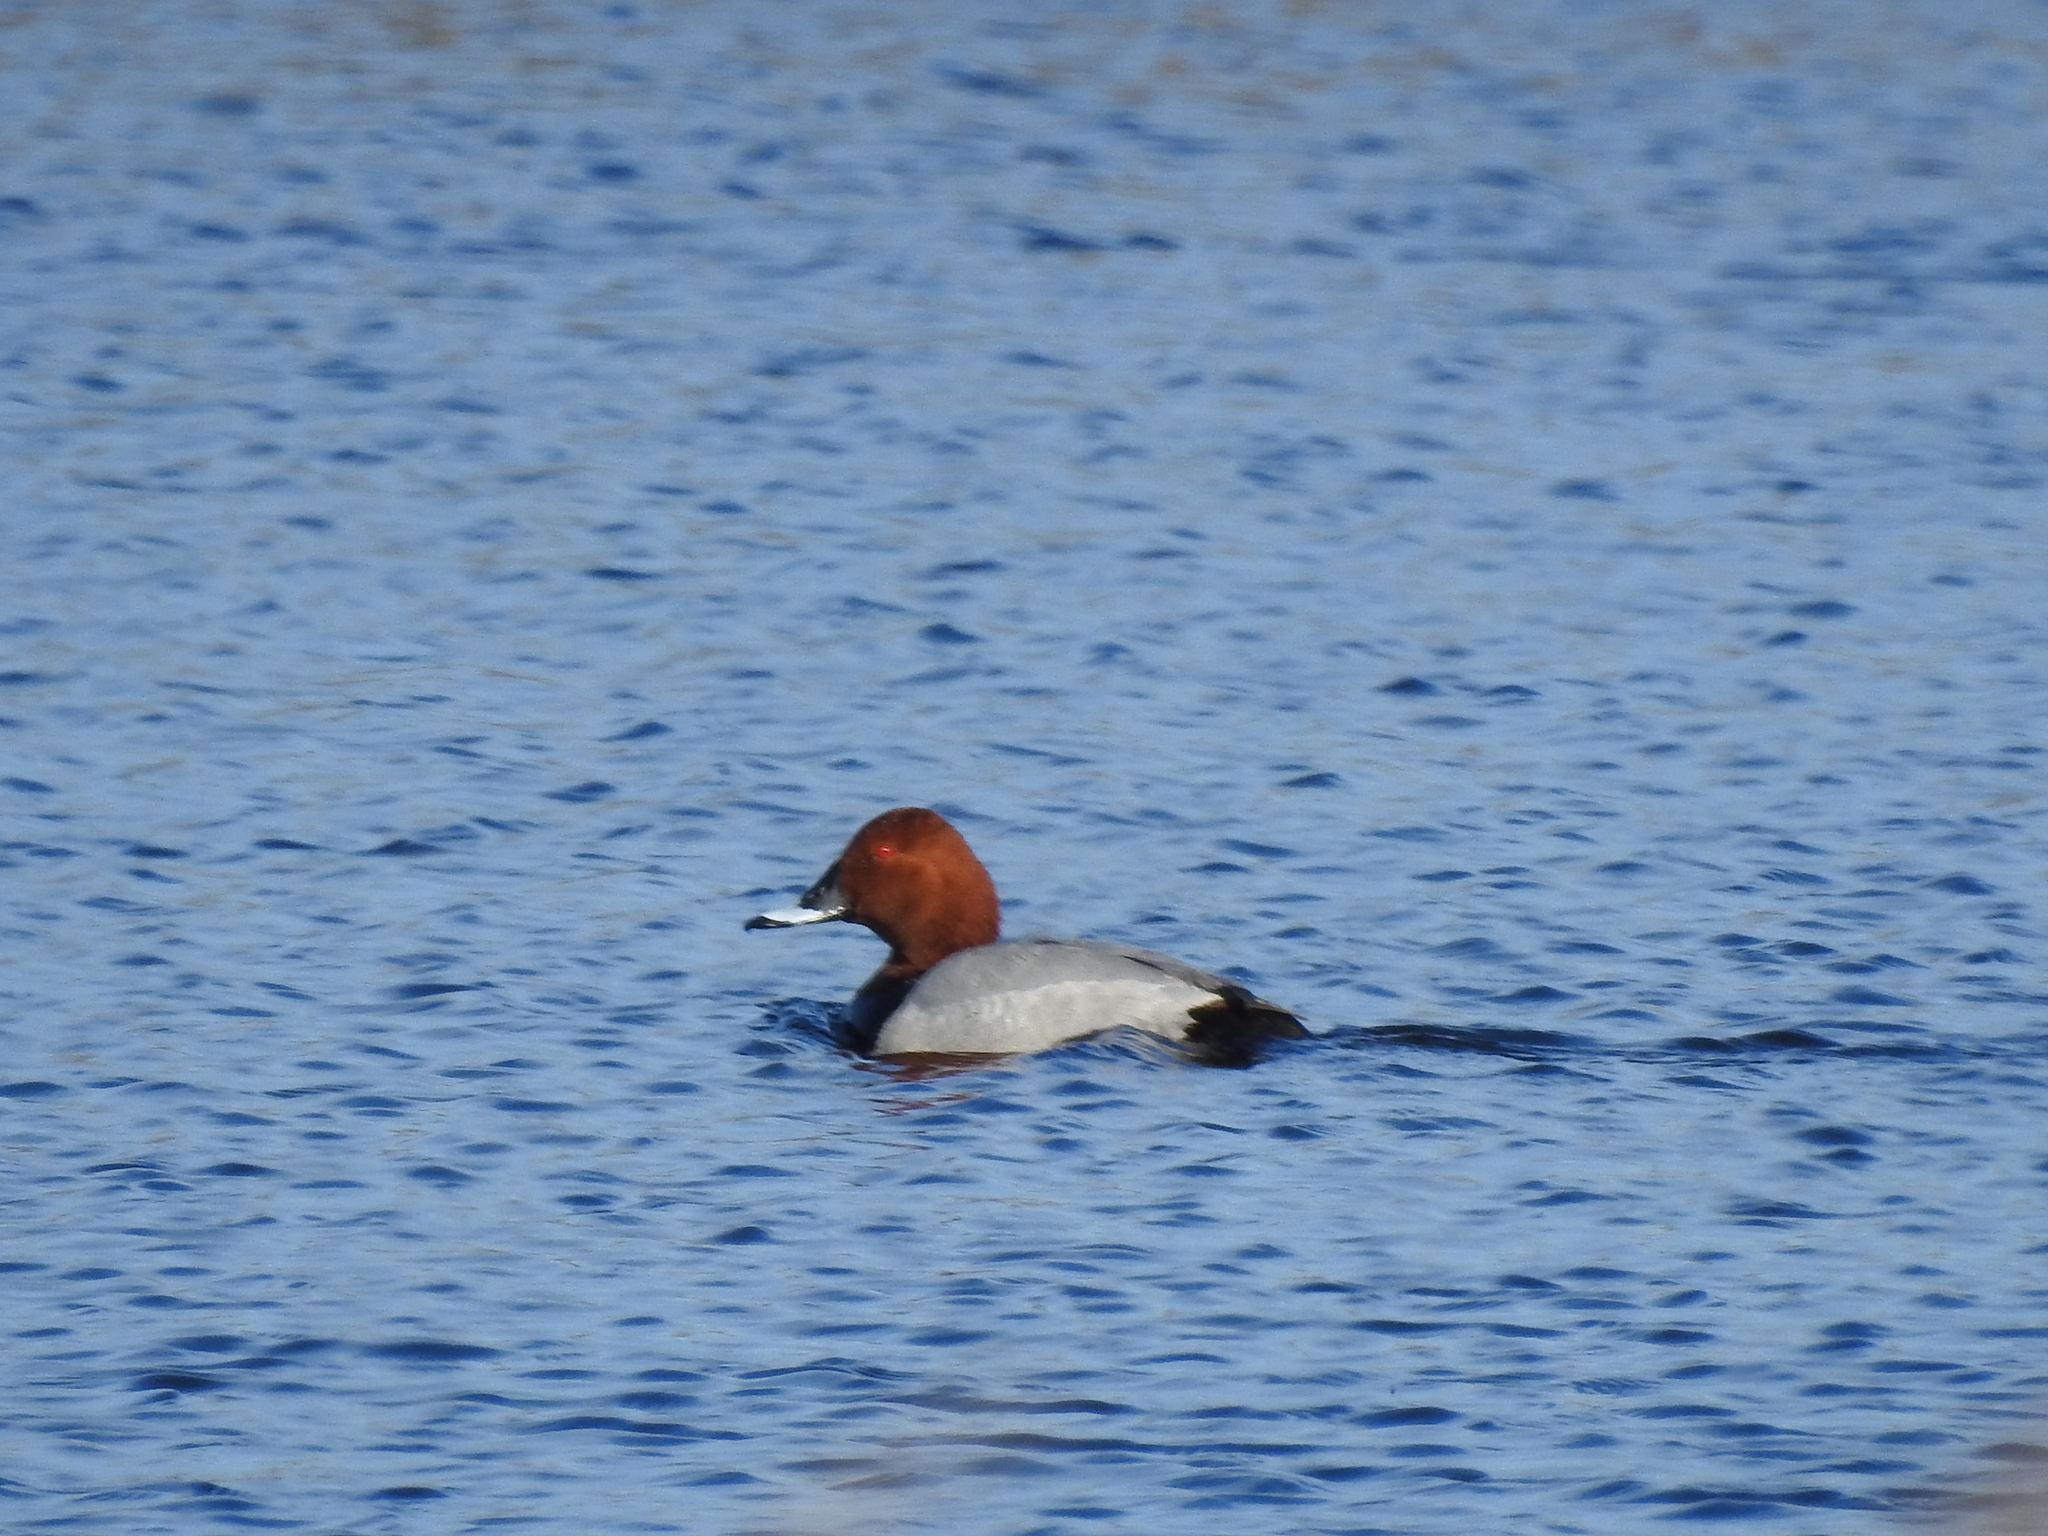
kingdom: Animalia
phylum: Chordata
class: Aves
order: Anseriformes
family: Anatidae
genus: Aythya
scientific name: Aythya ferina
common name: Common pochard
